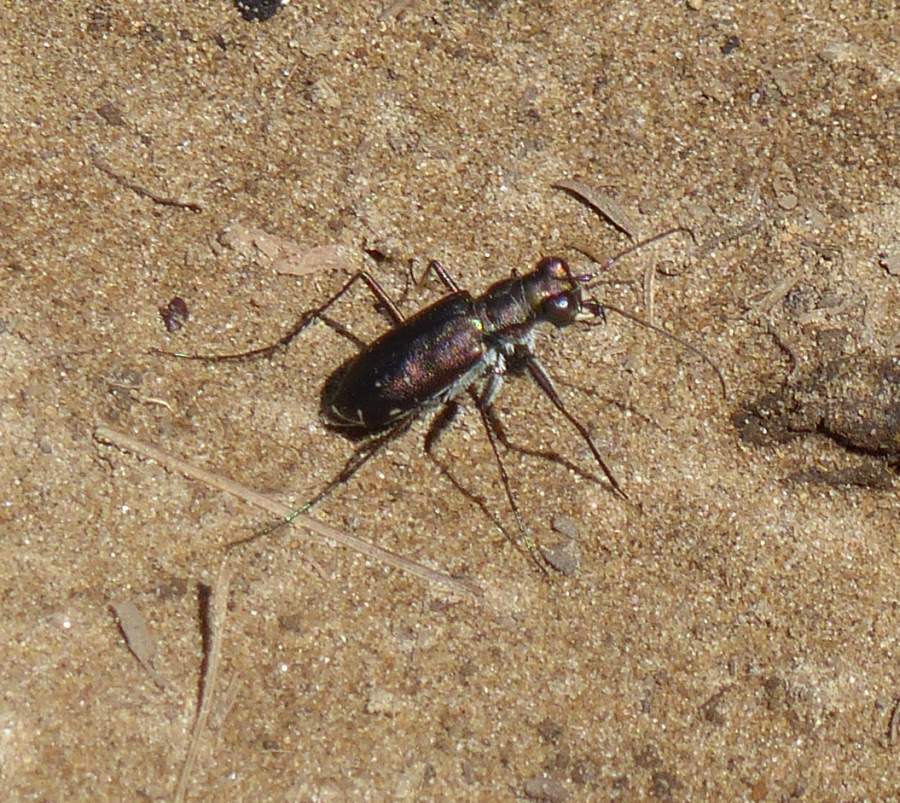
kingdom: Animalia
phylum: Arthropoda
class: Insecta
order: Coleoptera
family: Carabidae
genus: Cicindela
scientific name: Cicindela punctulata
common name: Punctured tiger beetle
